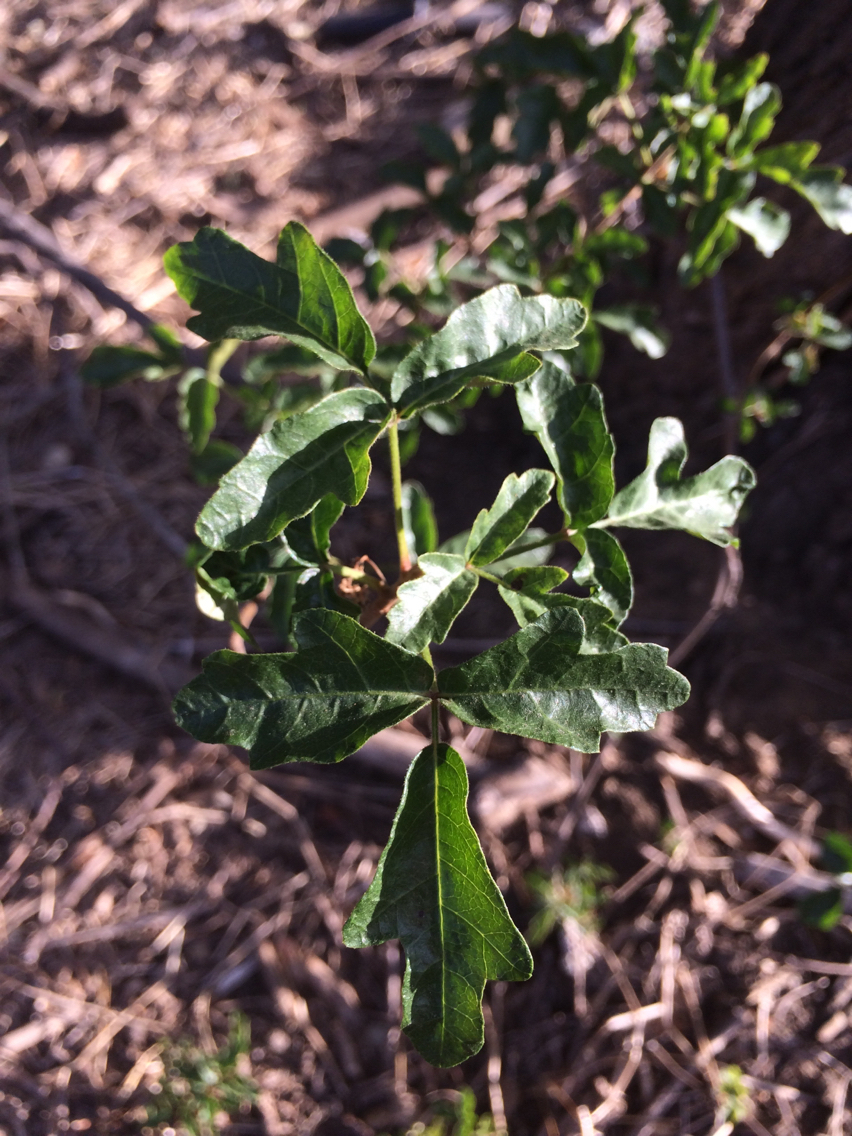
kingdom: Plantae
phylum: Tracheophyta
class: Magnoliopsida
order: Sapindales
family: Anacardiaceae
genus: Toxicodendron
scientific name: Toxicodendron diversilobum
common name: Pacific poison-oak
